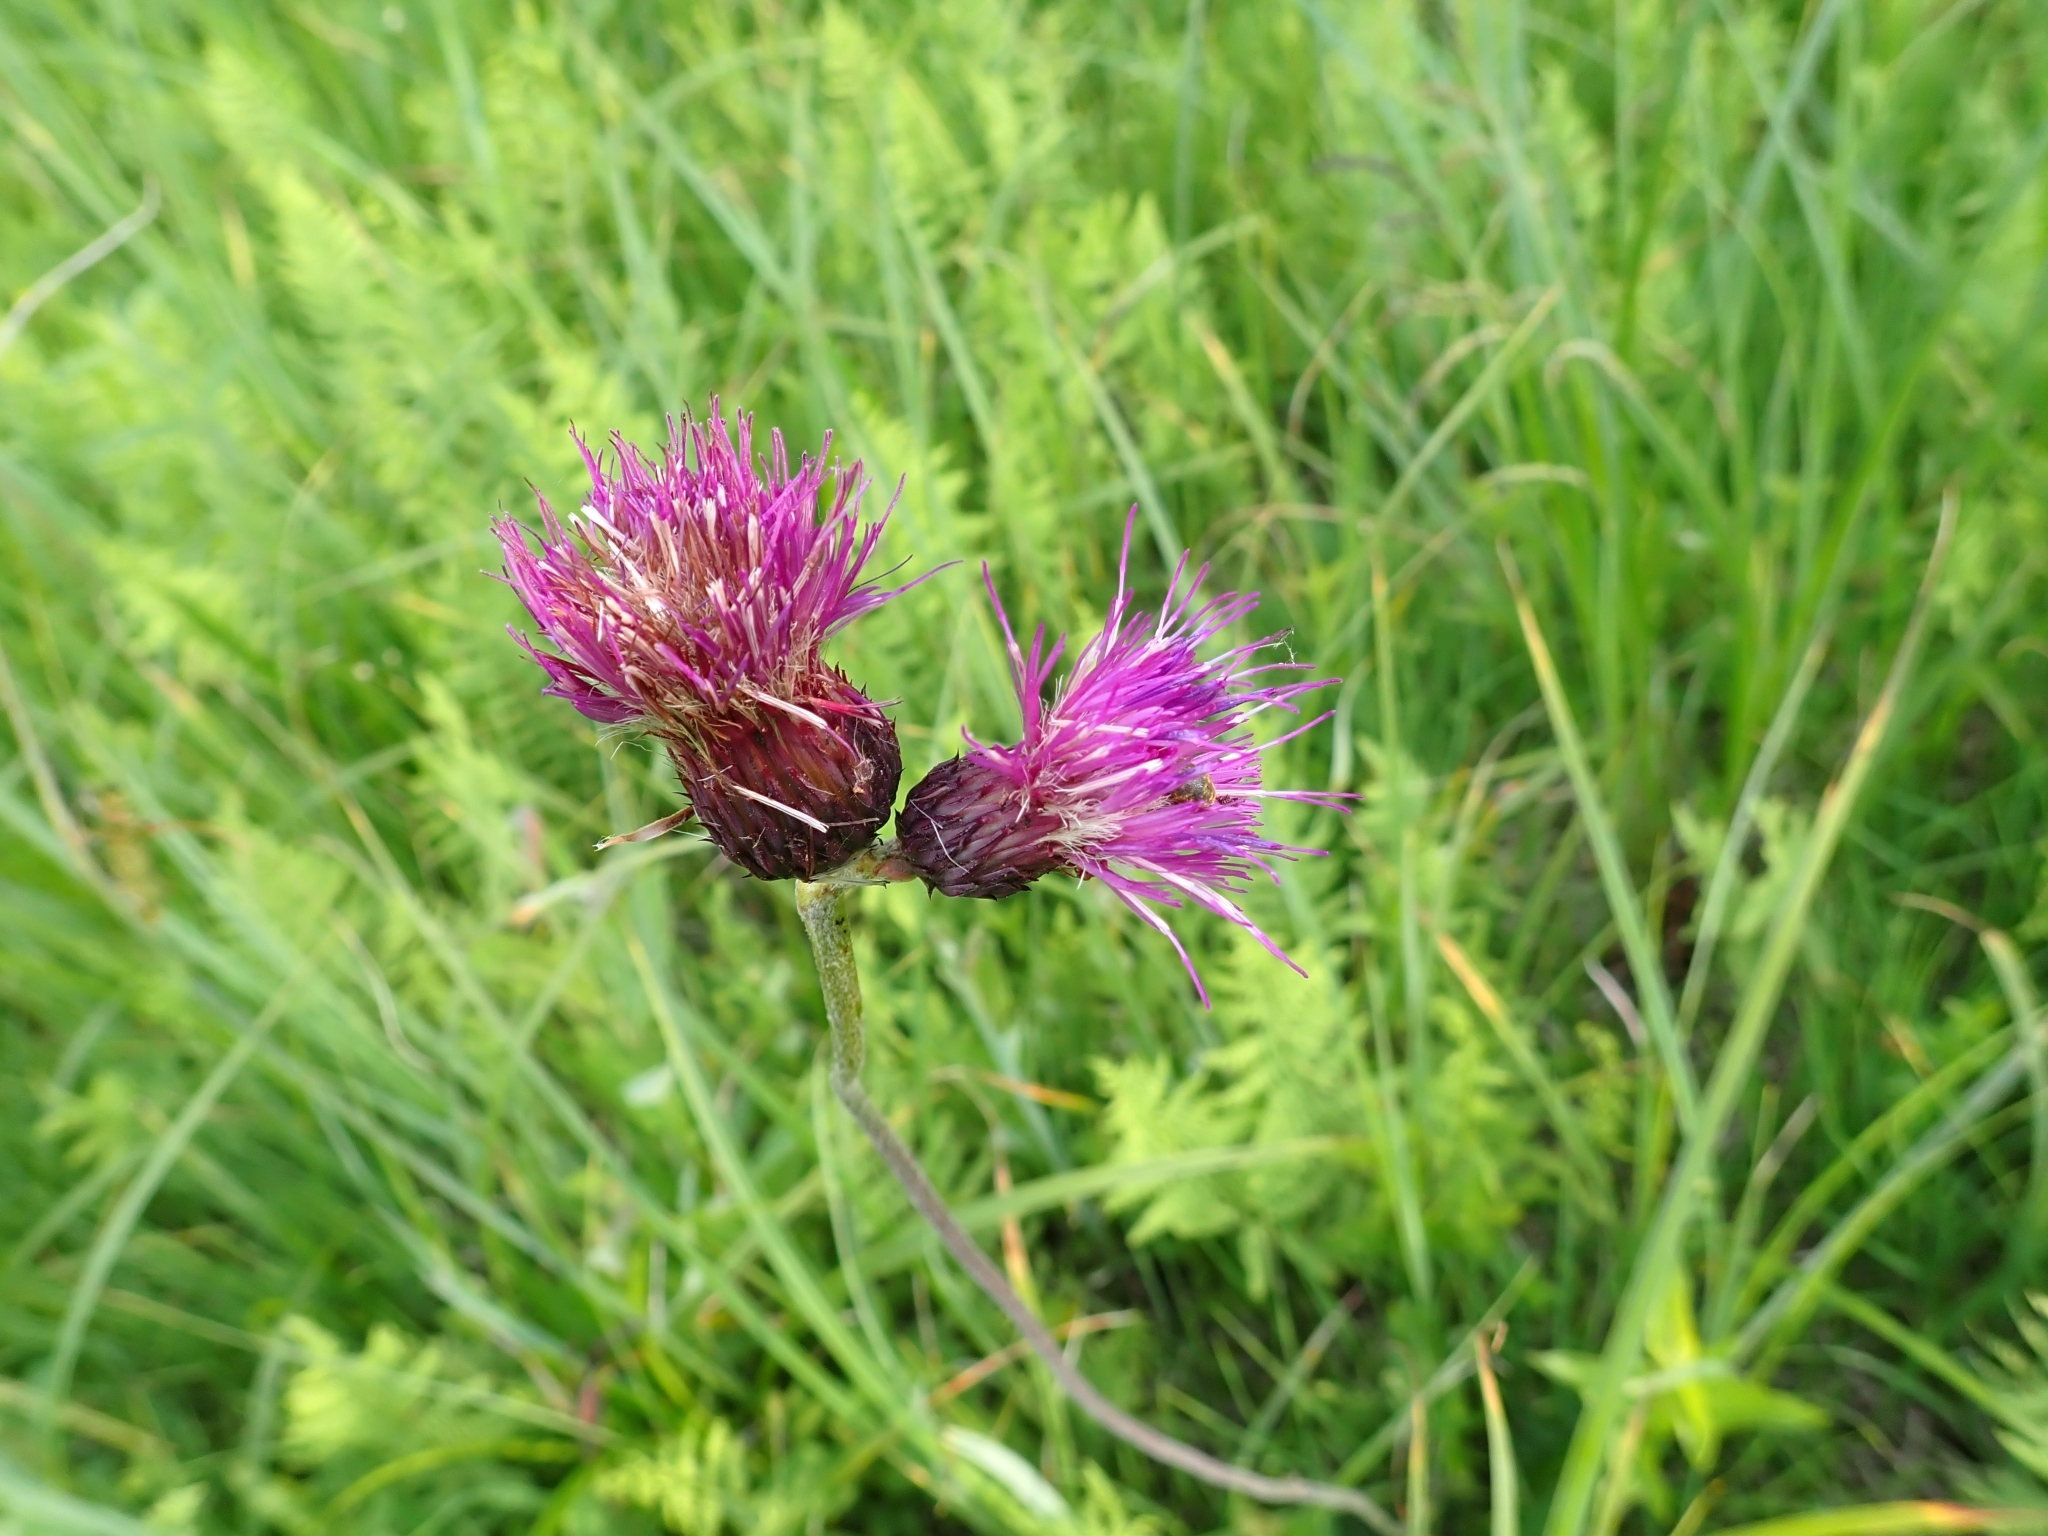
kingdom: Plantae
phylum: Tracheophyta
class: Magnoliopsida
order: Asterales
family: Asteraceae
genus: Cirsium
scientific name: Cirsium rivulare
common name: Brook thistle
